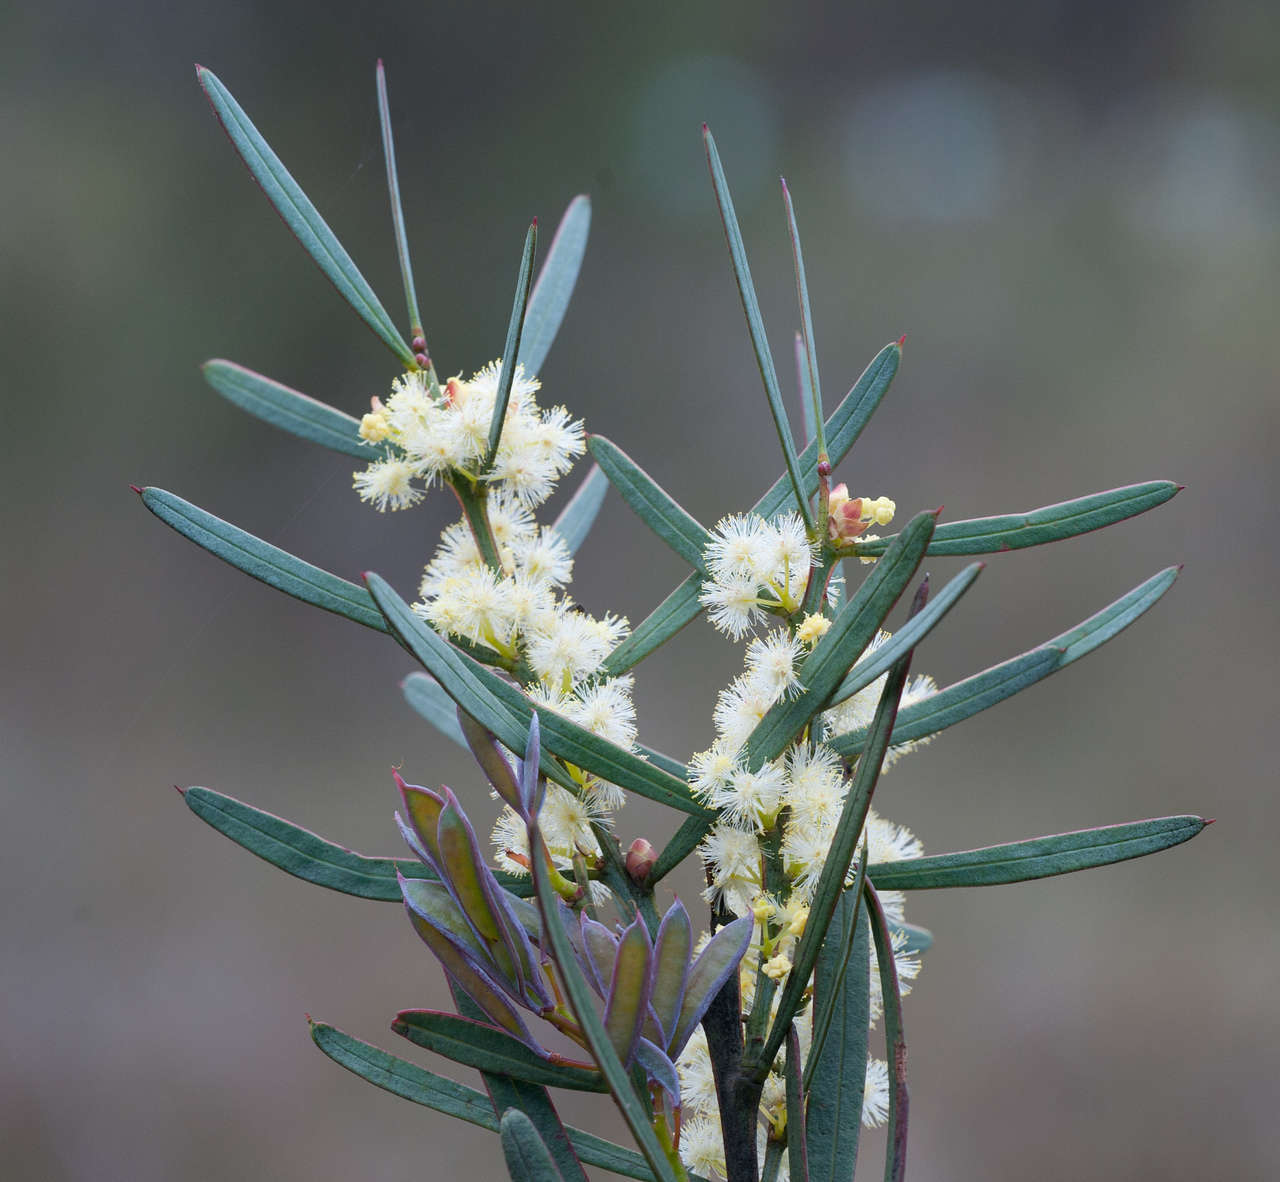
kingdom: Plantae
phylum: Tracheophyta
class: Magnoliopsida
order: Fabales
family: Fabaceae
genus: Acacia
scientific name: Acacia suaveolens
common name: Sweet acacia
